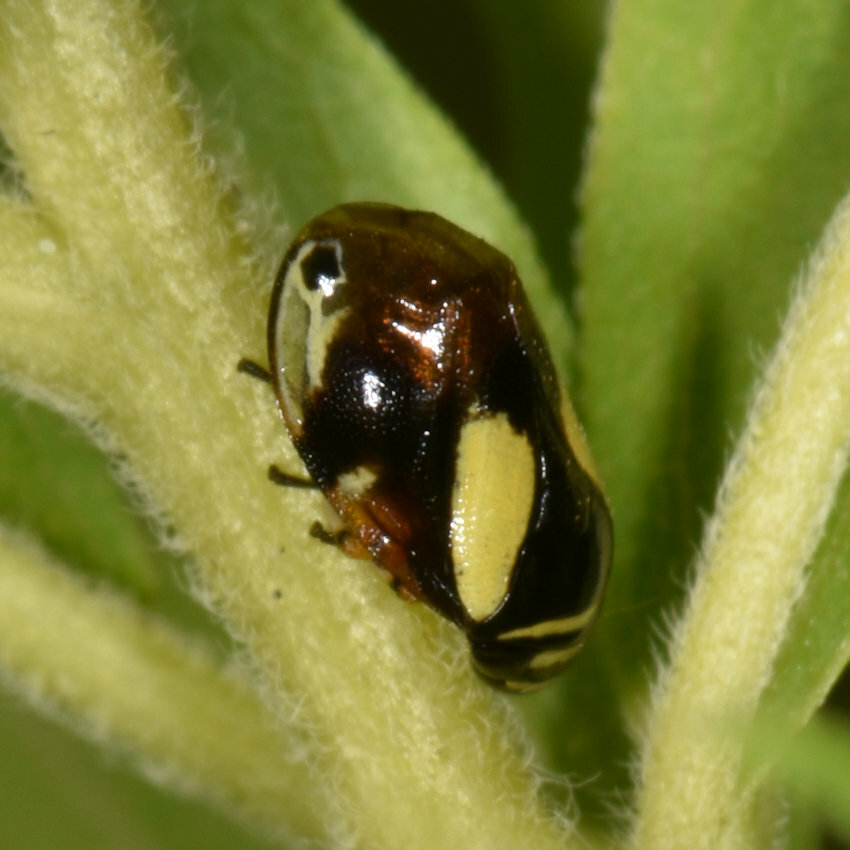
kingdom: Animalia
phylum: Arthropoda
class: Insecta
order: Hemiptera
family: Clastopteridae
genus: Clastoptera
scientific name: Clastoptera proteus
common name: Dogwood spittlebug
